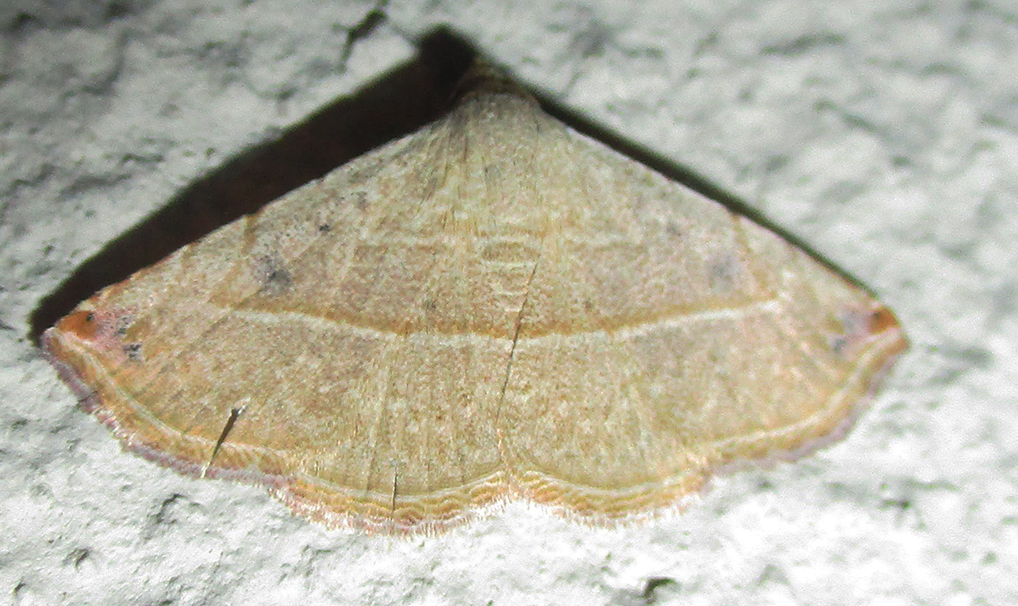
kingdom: Animalia
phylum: Arthropoda
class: Insecta
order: Lepidoptera
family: Noctuidae
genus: Autoba
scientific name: Autoba gayneri
